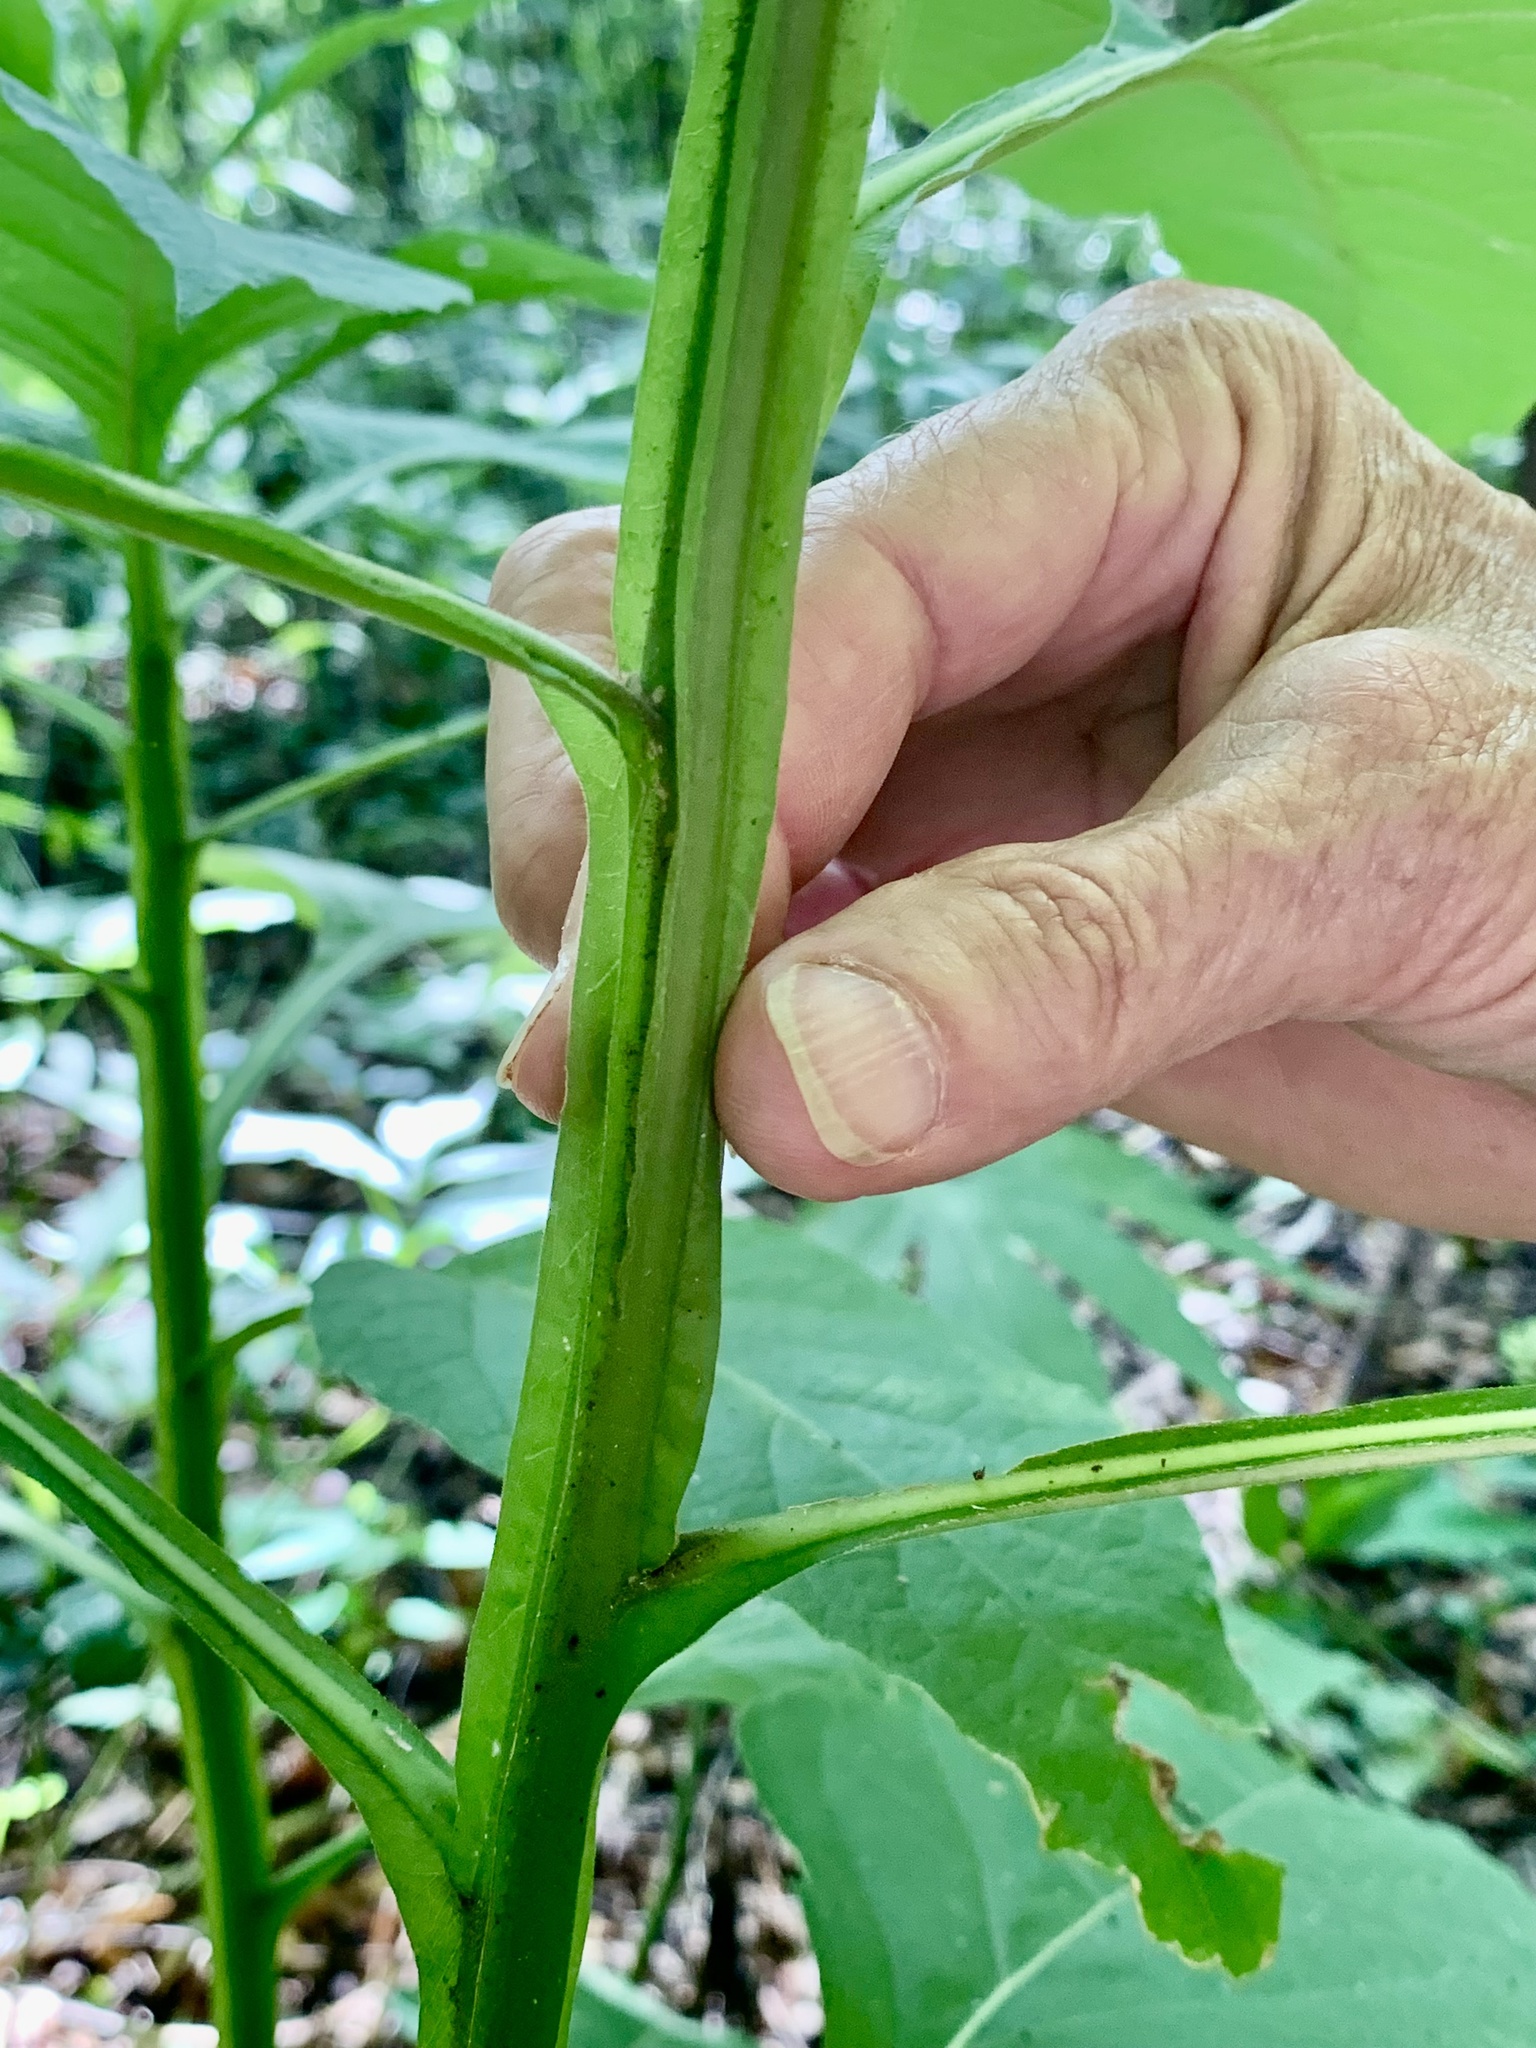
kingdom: Plantae
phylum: Tracheophyta
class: Magnoliopsida
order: Asterales
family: Asteraceae
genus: Verbesina
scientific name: Verbesina virginica
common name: Frostweed
